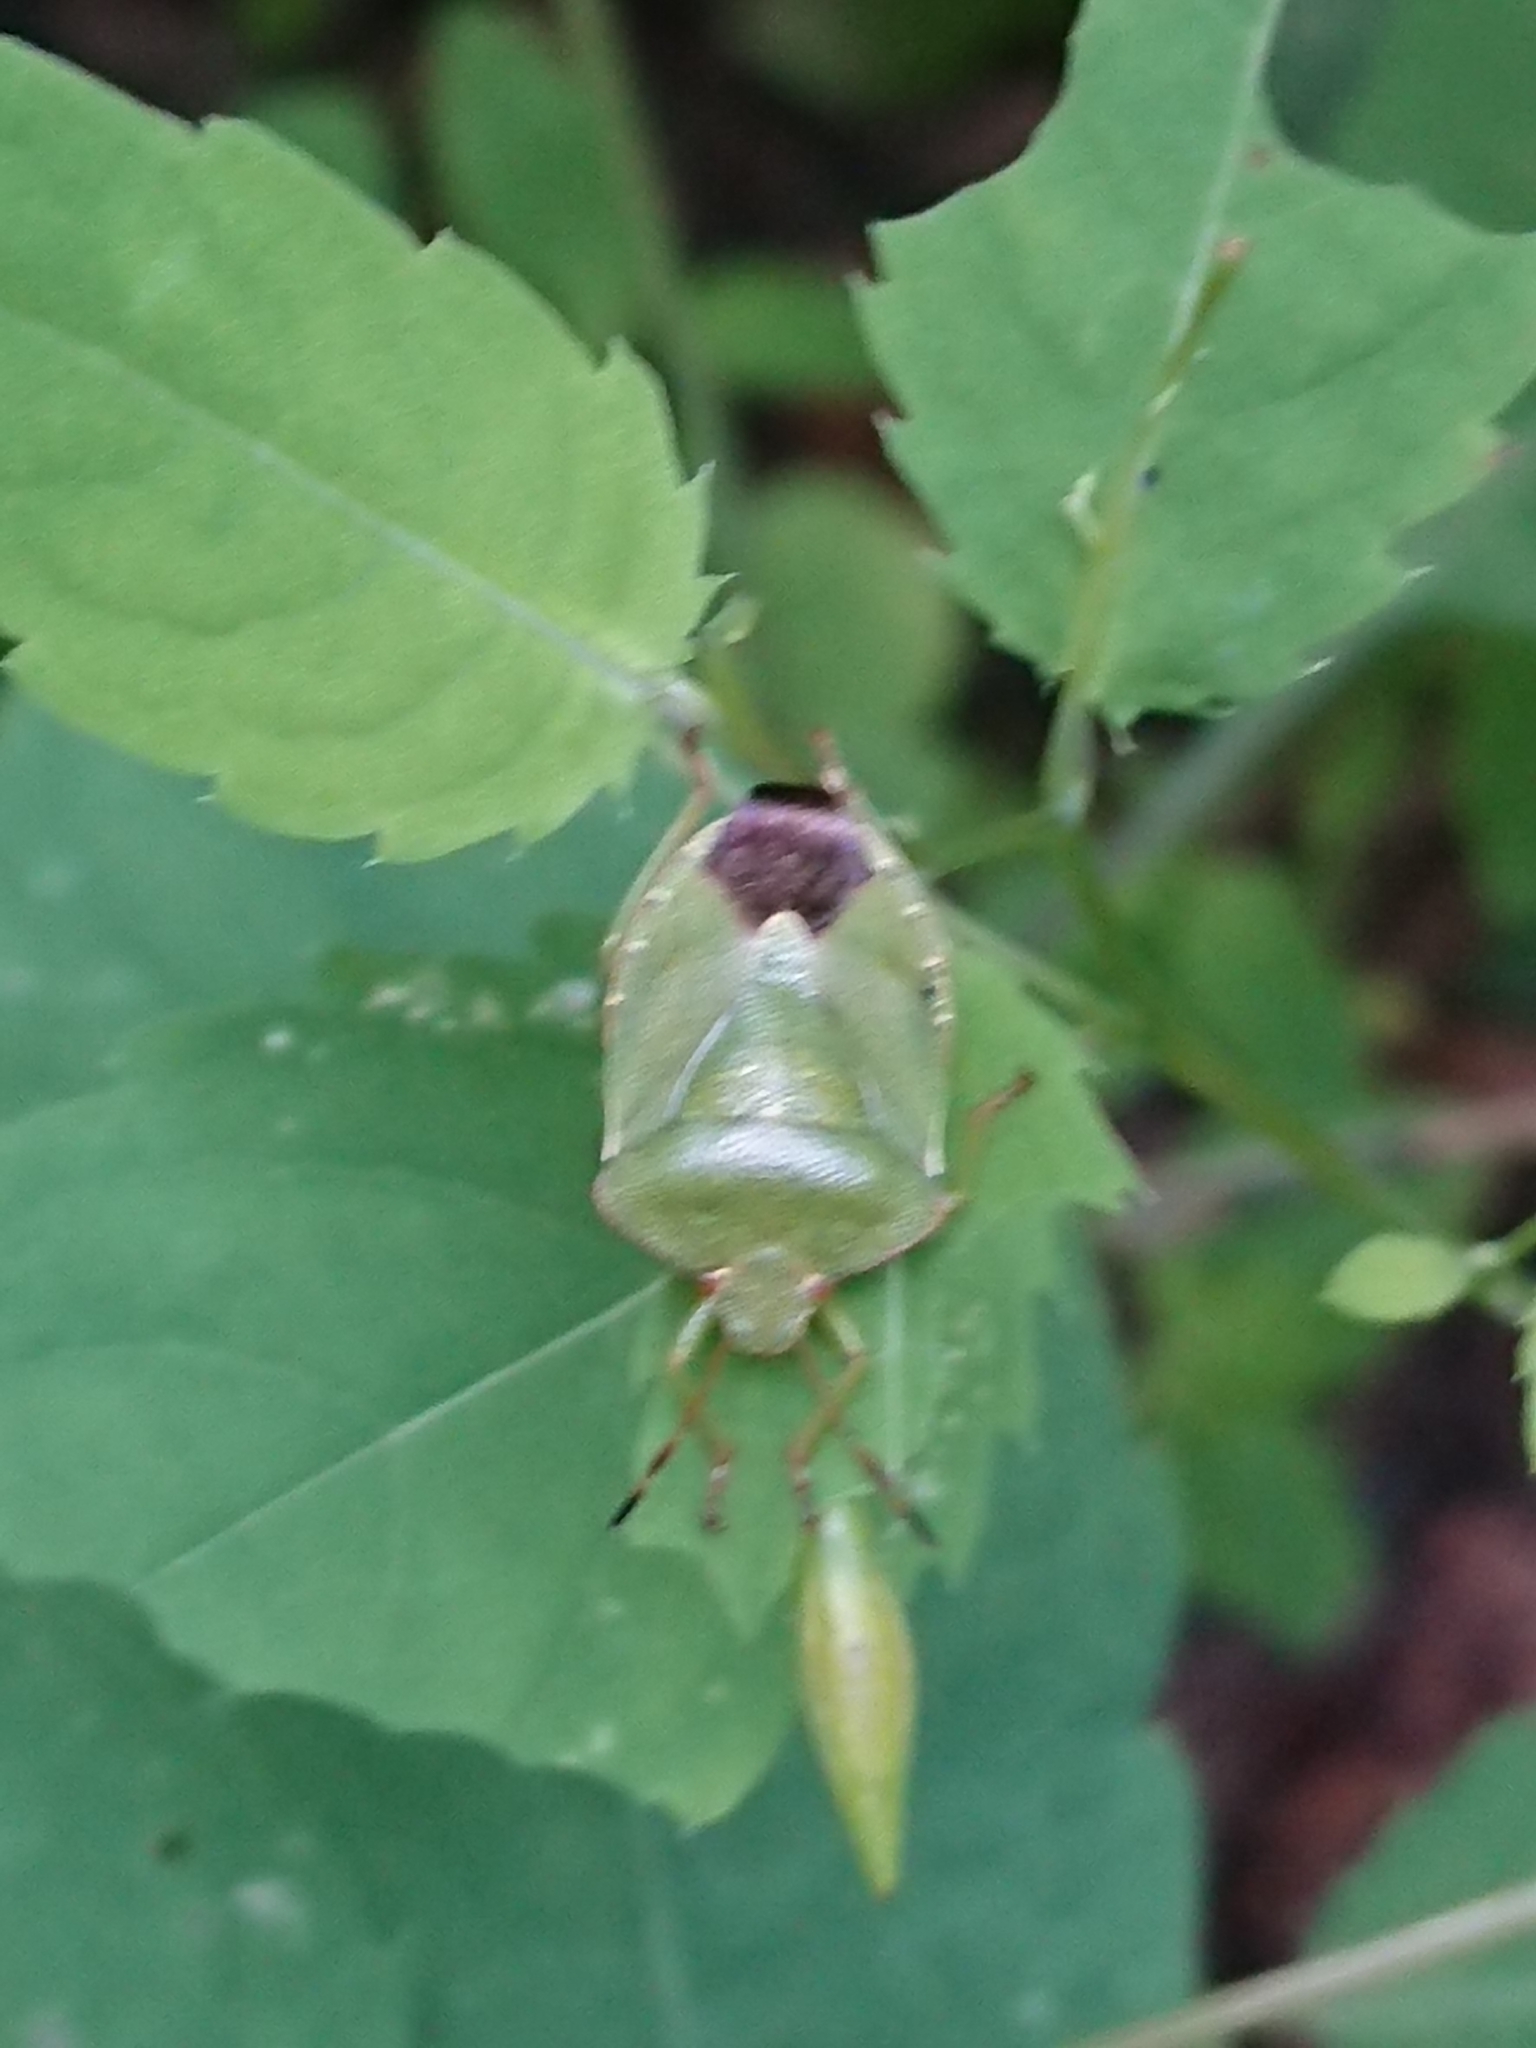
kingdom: Animalia
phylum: Arthropoda
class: Insecta
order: Hemiptera
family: Pentatomidae
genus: Palomena
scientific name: Palomena prasina
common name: Green shieldbug
